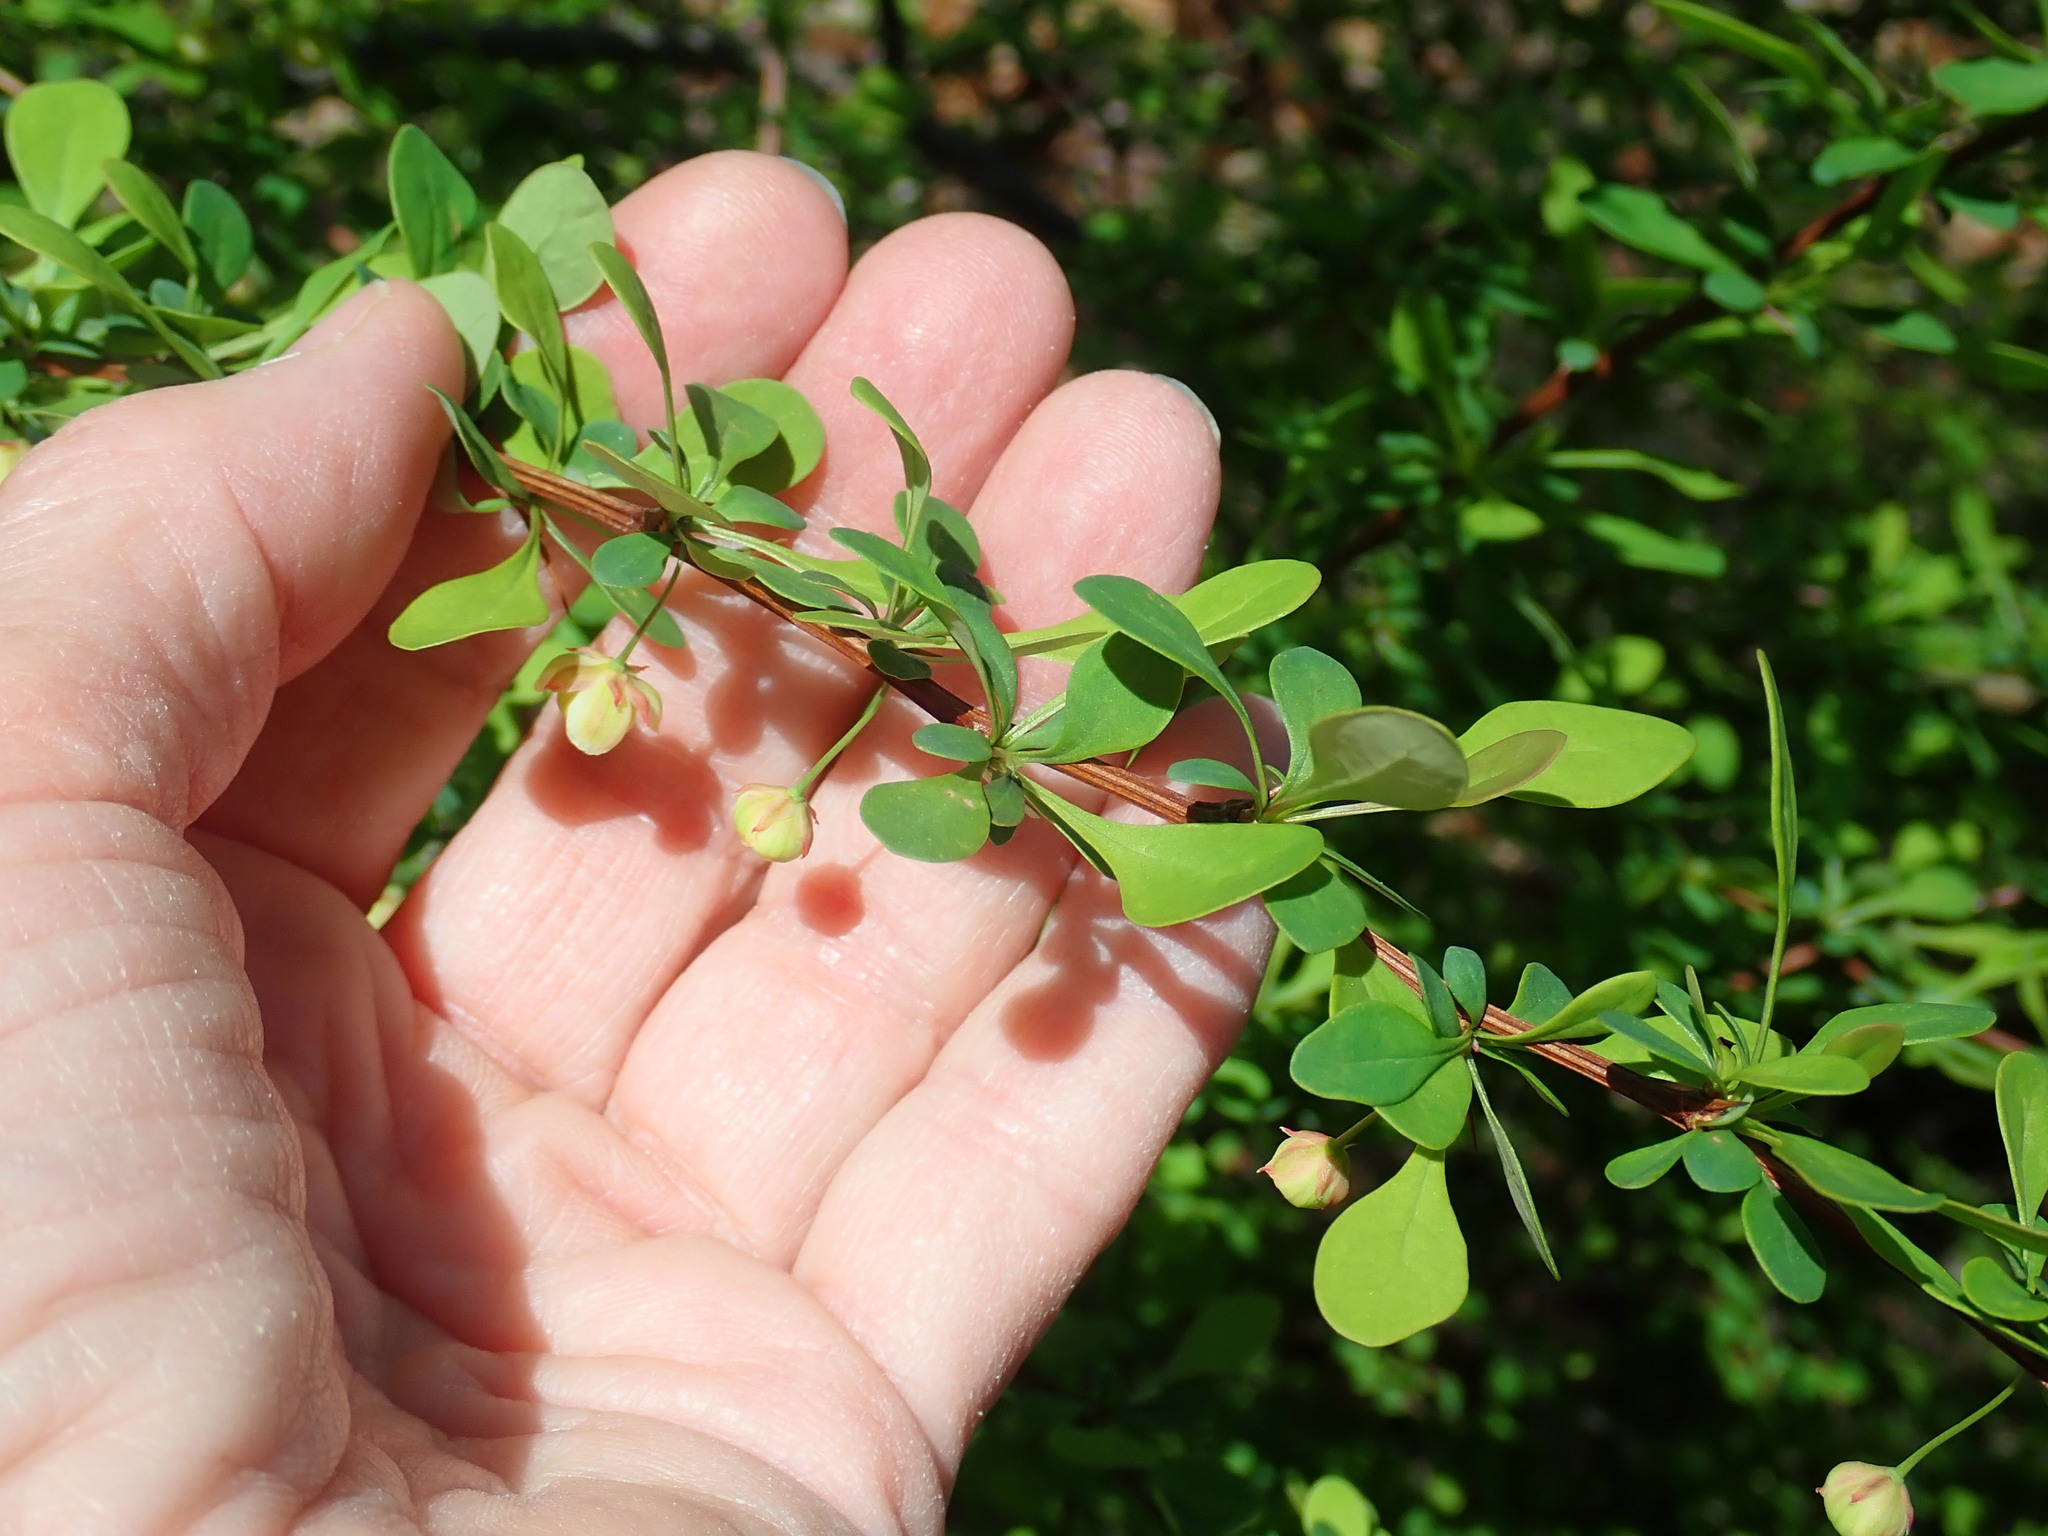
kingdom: Plantae
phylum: Tracheophyta
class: Magnoliopsida
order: Ranunculales
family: Berberidaceae
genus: Berberis
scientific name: Berberis thunbergii
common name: Japanese barberry
